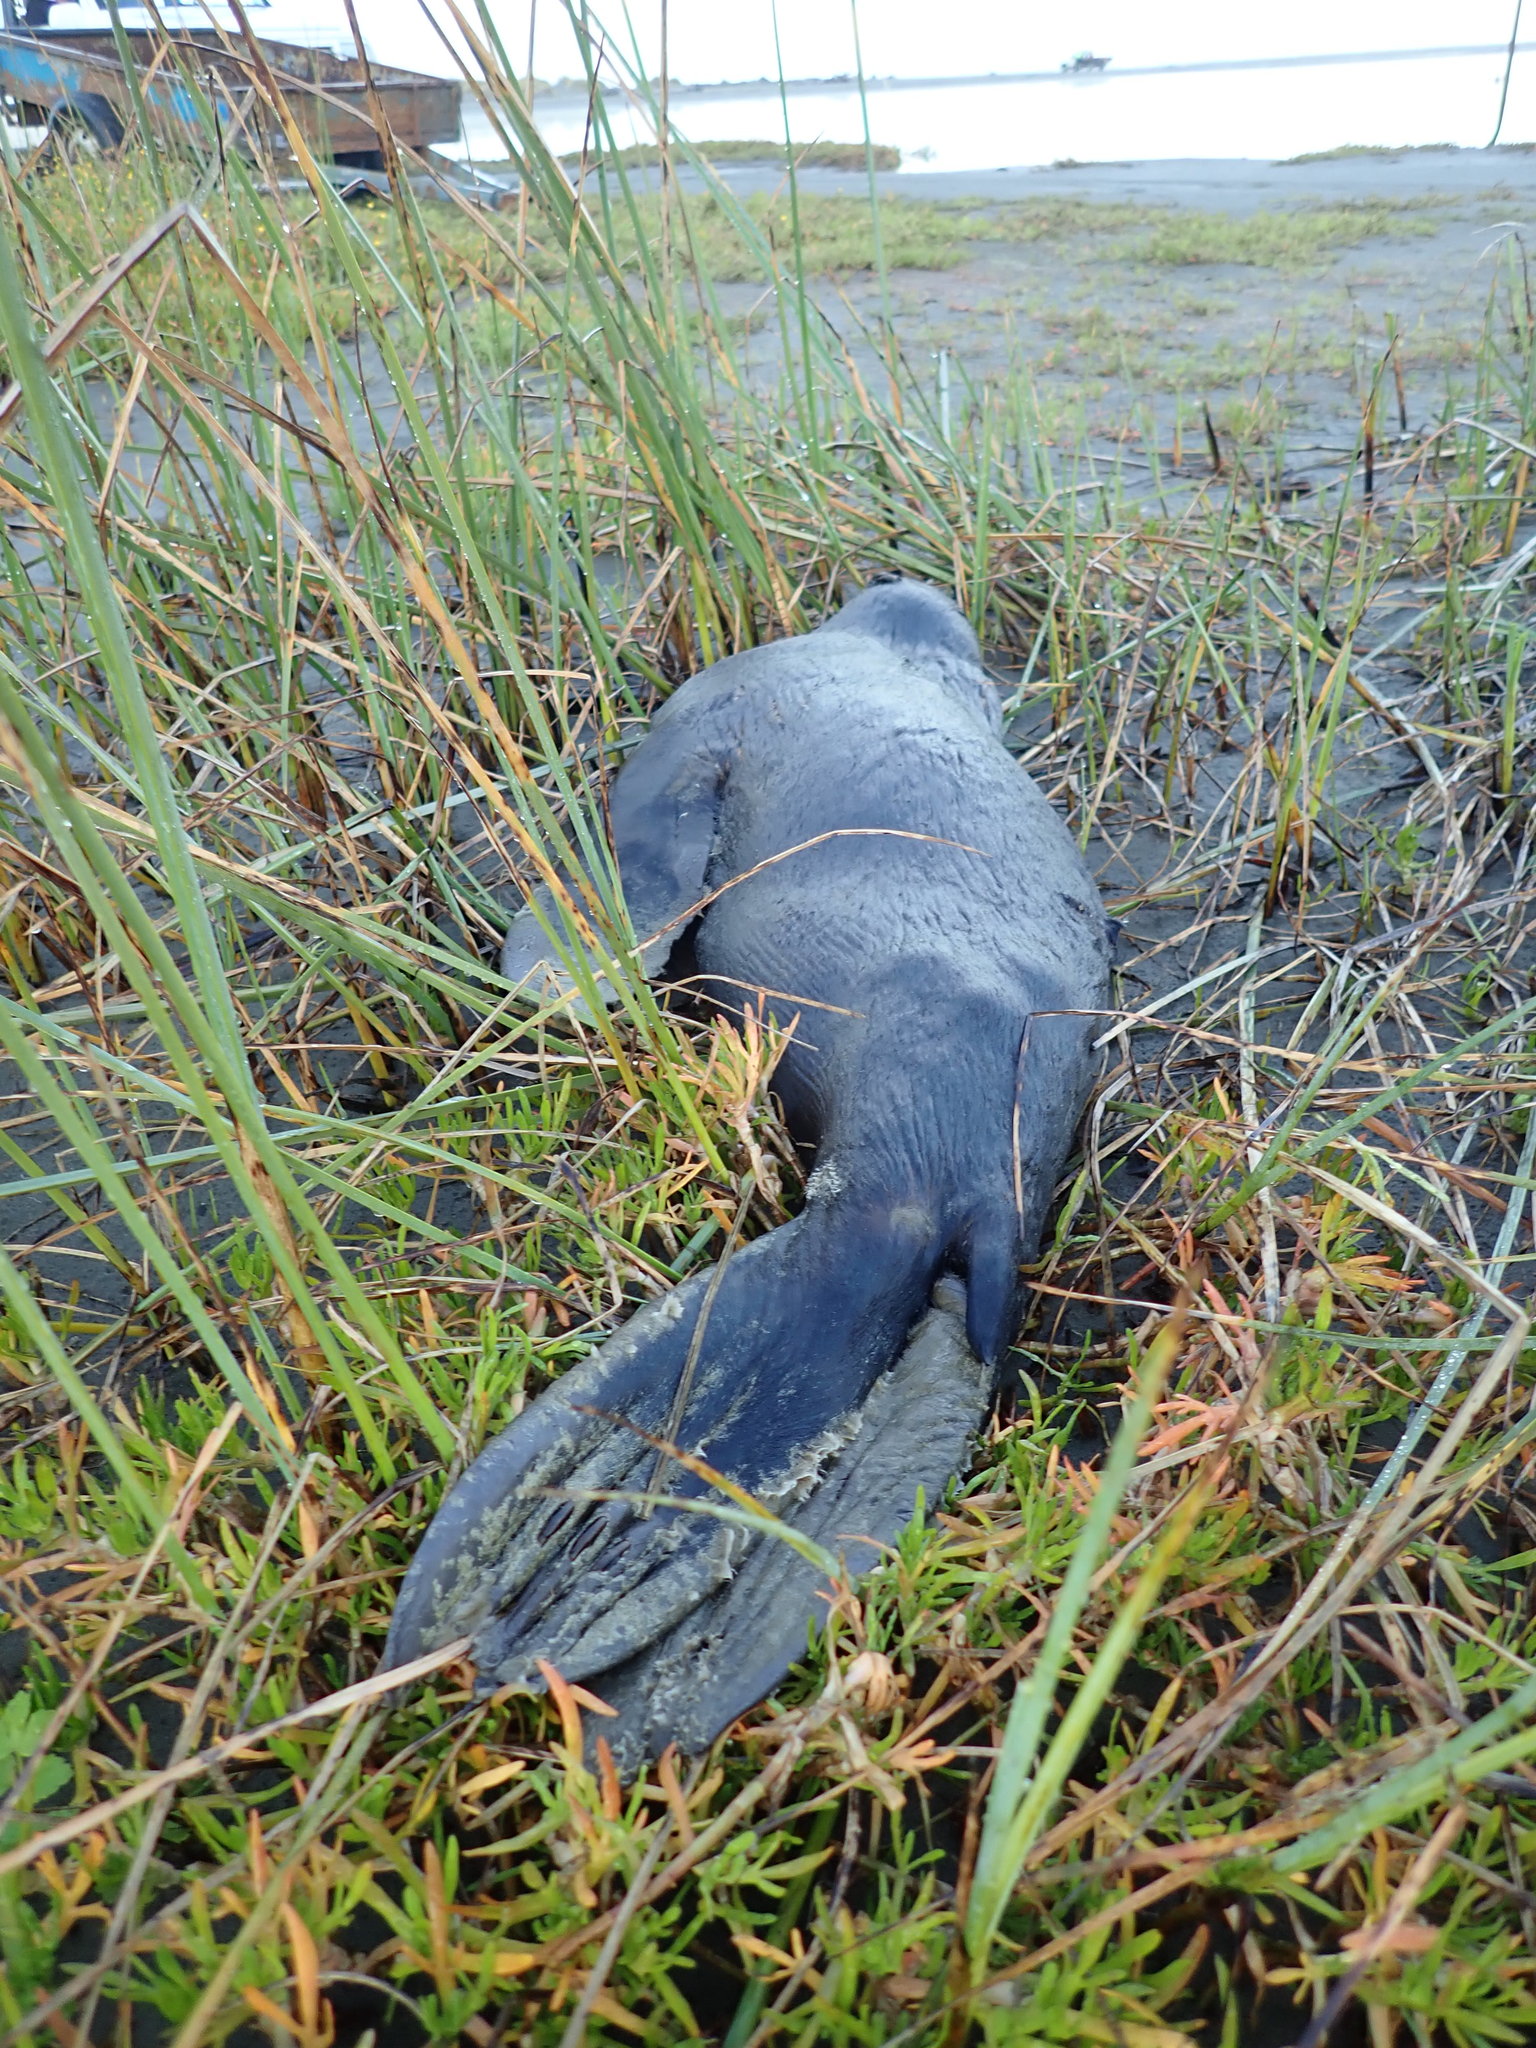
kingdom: Animalia
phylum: Chordata
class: Mammalia
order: Carnivora
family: Otariidae
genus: Arctocephalus
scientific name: Arctocephalus forsteri
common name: New zealand fur seal
